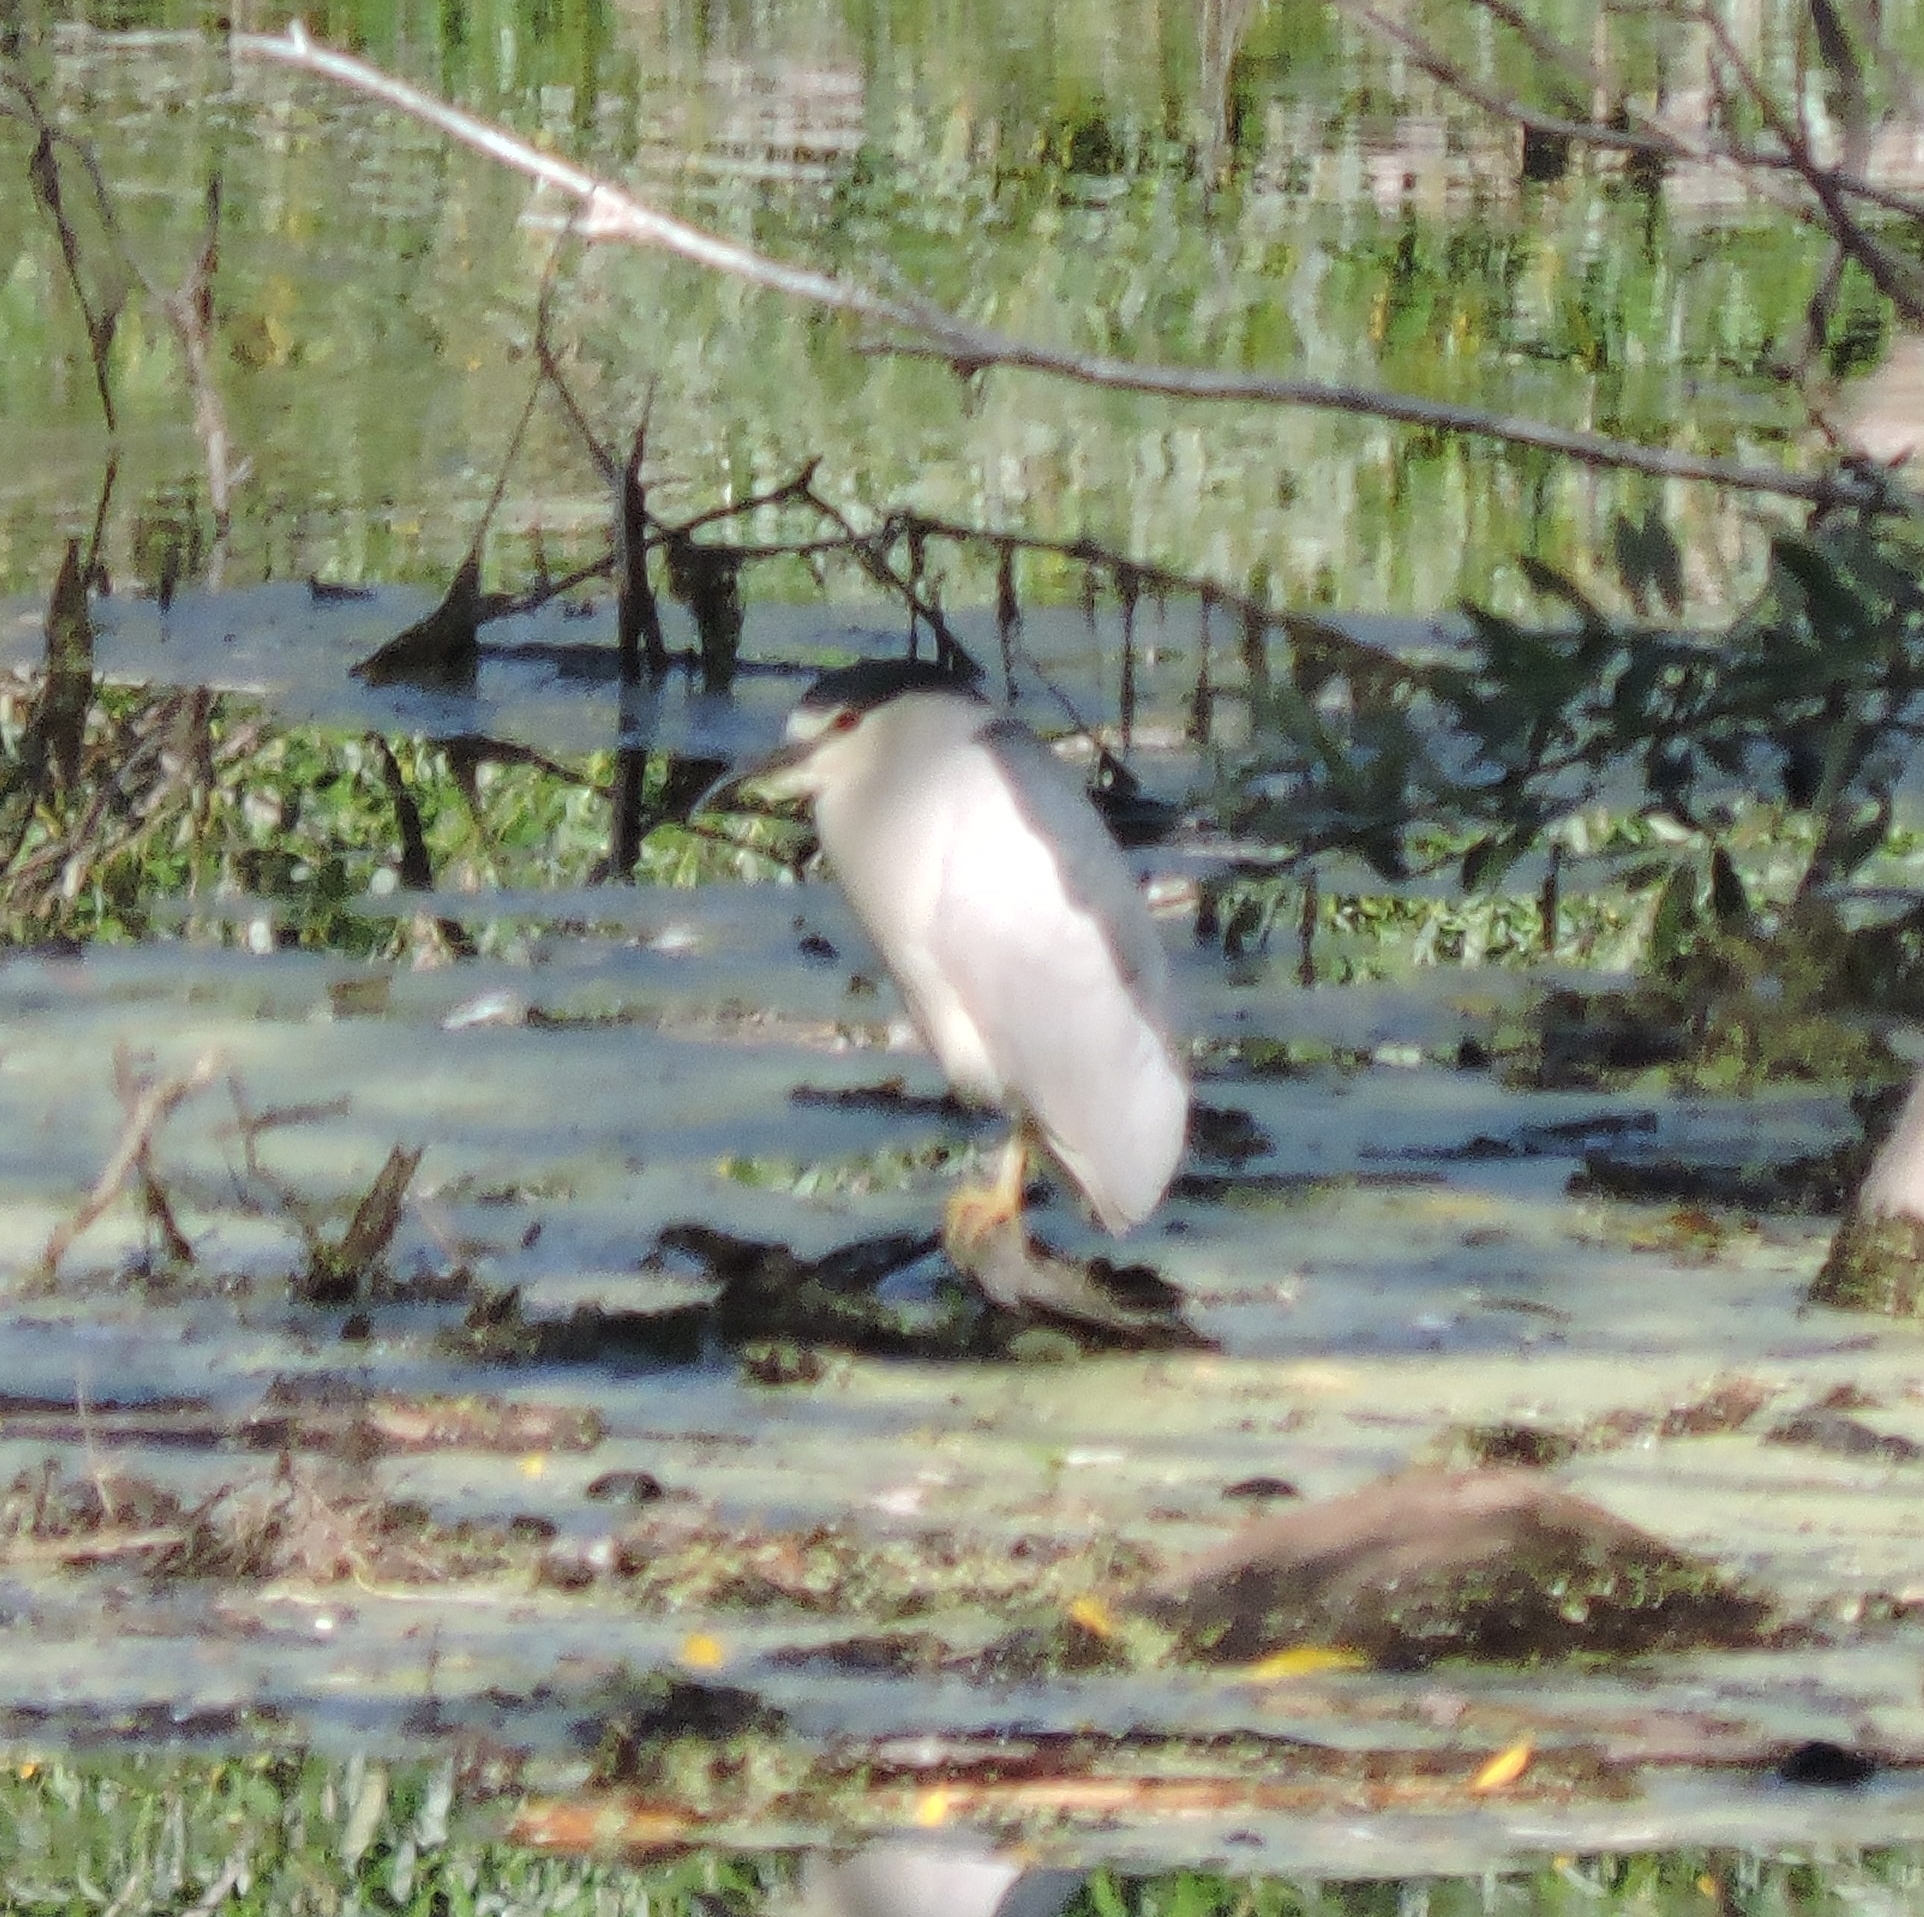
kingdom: Animalia
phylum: Chordata
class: Aves
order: Pelecaniformes
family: Ardeidae
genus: Nycticorax
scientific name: Nycticorax nycticorax
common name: Black-crowned night heron
